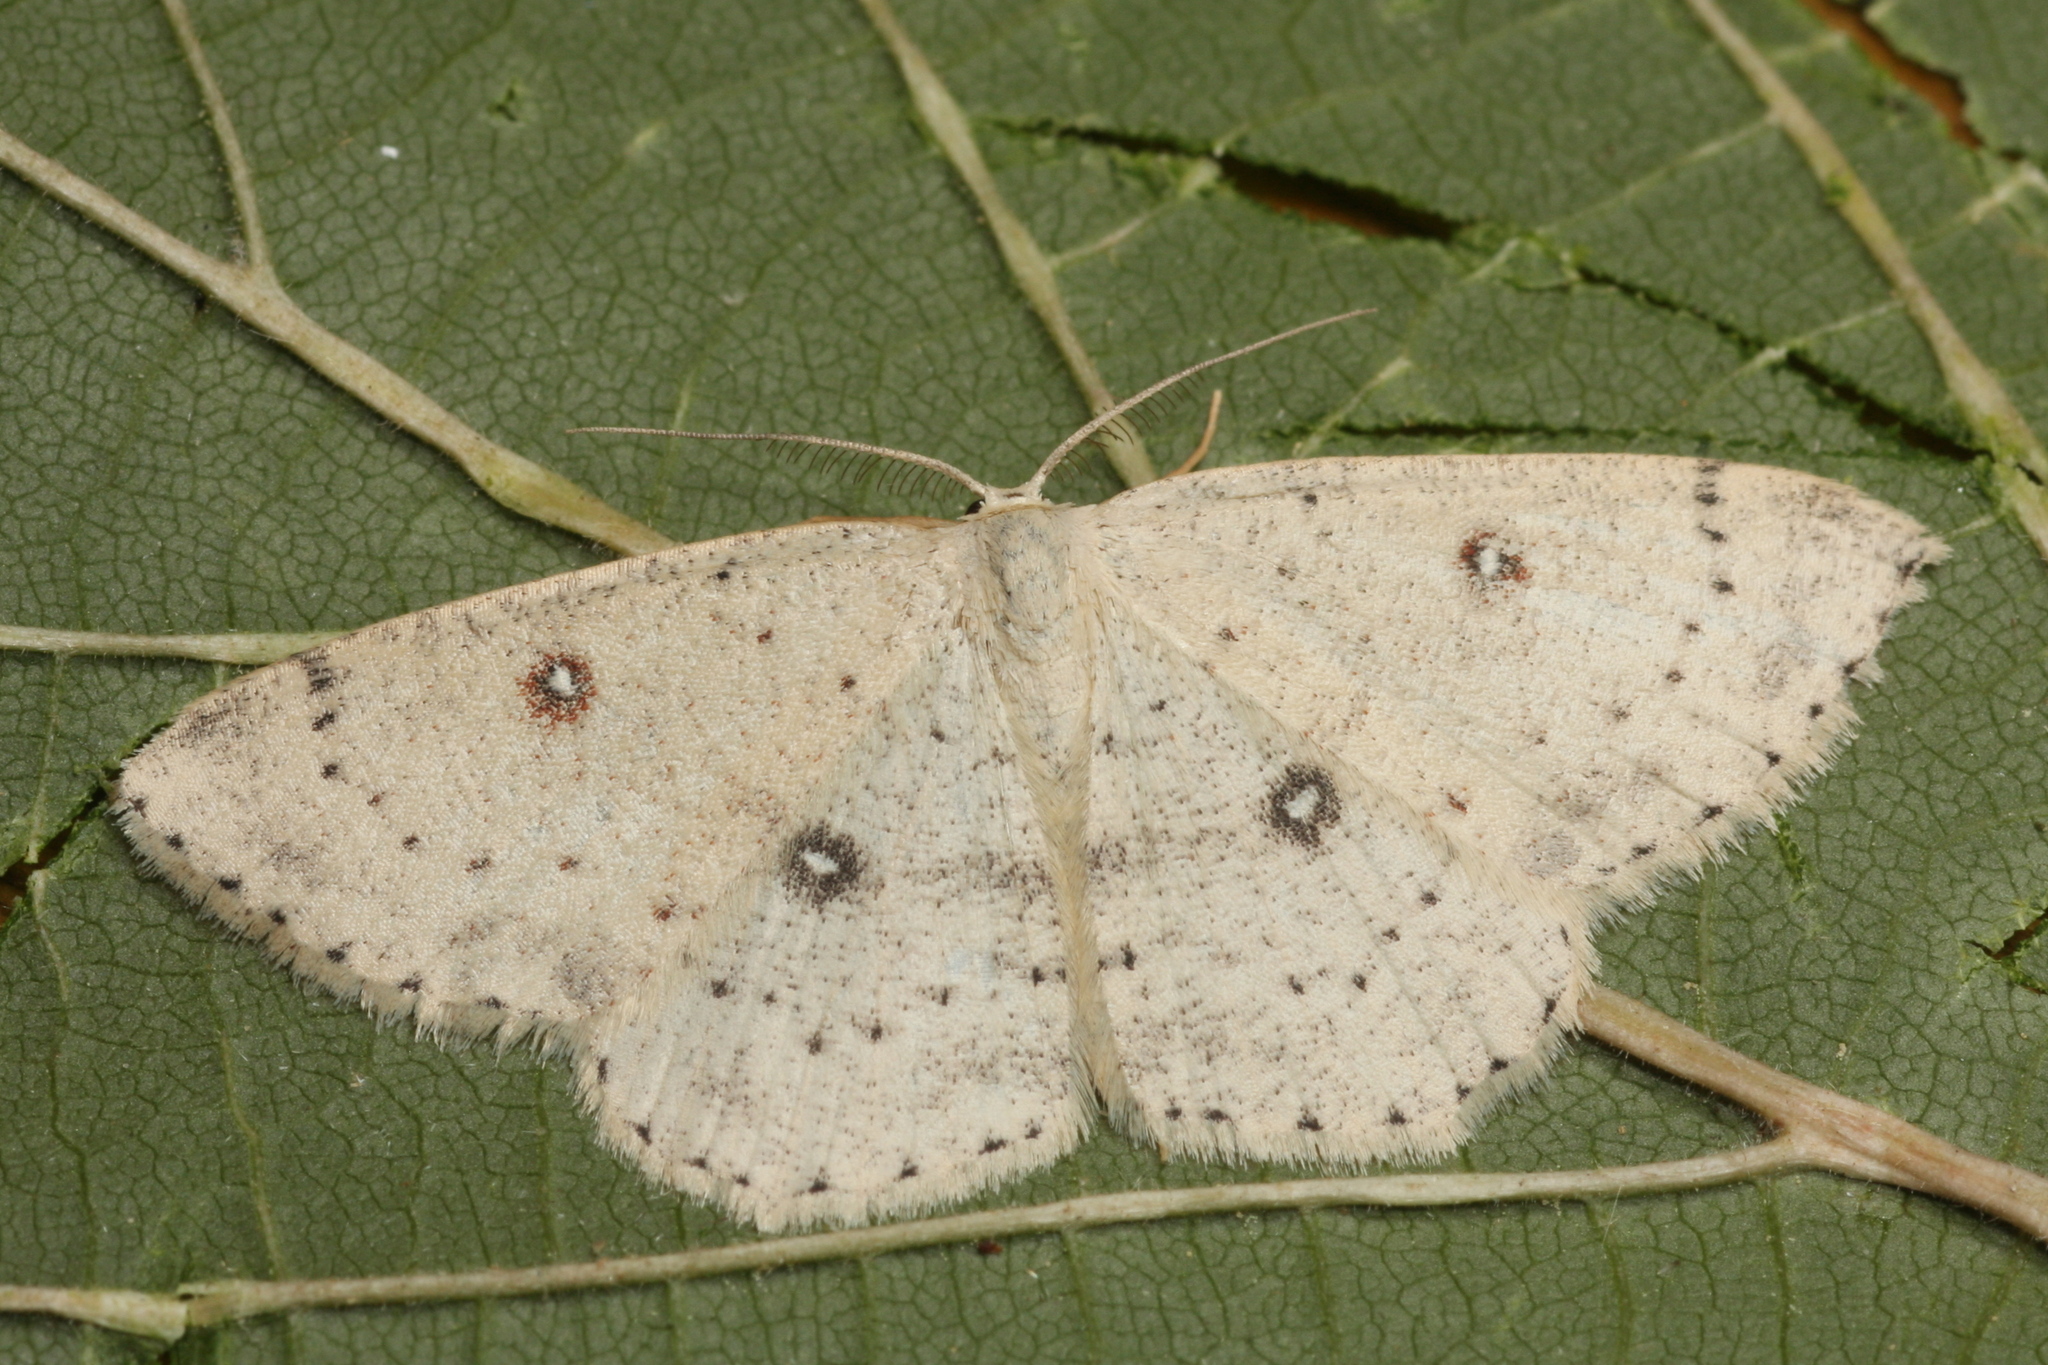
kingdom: Animalia
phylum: Arthropoda
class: Insecta
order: Lepidoptera
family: Geometridae
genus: Cyclophora
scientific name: Cyclophora albipunctata
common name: Birch mocha
